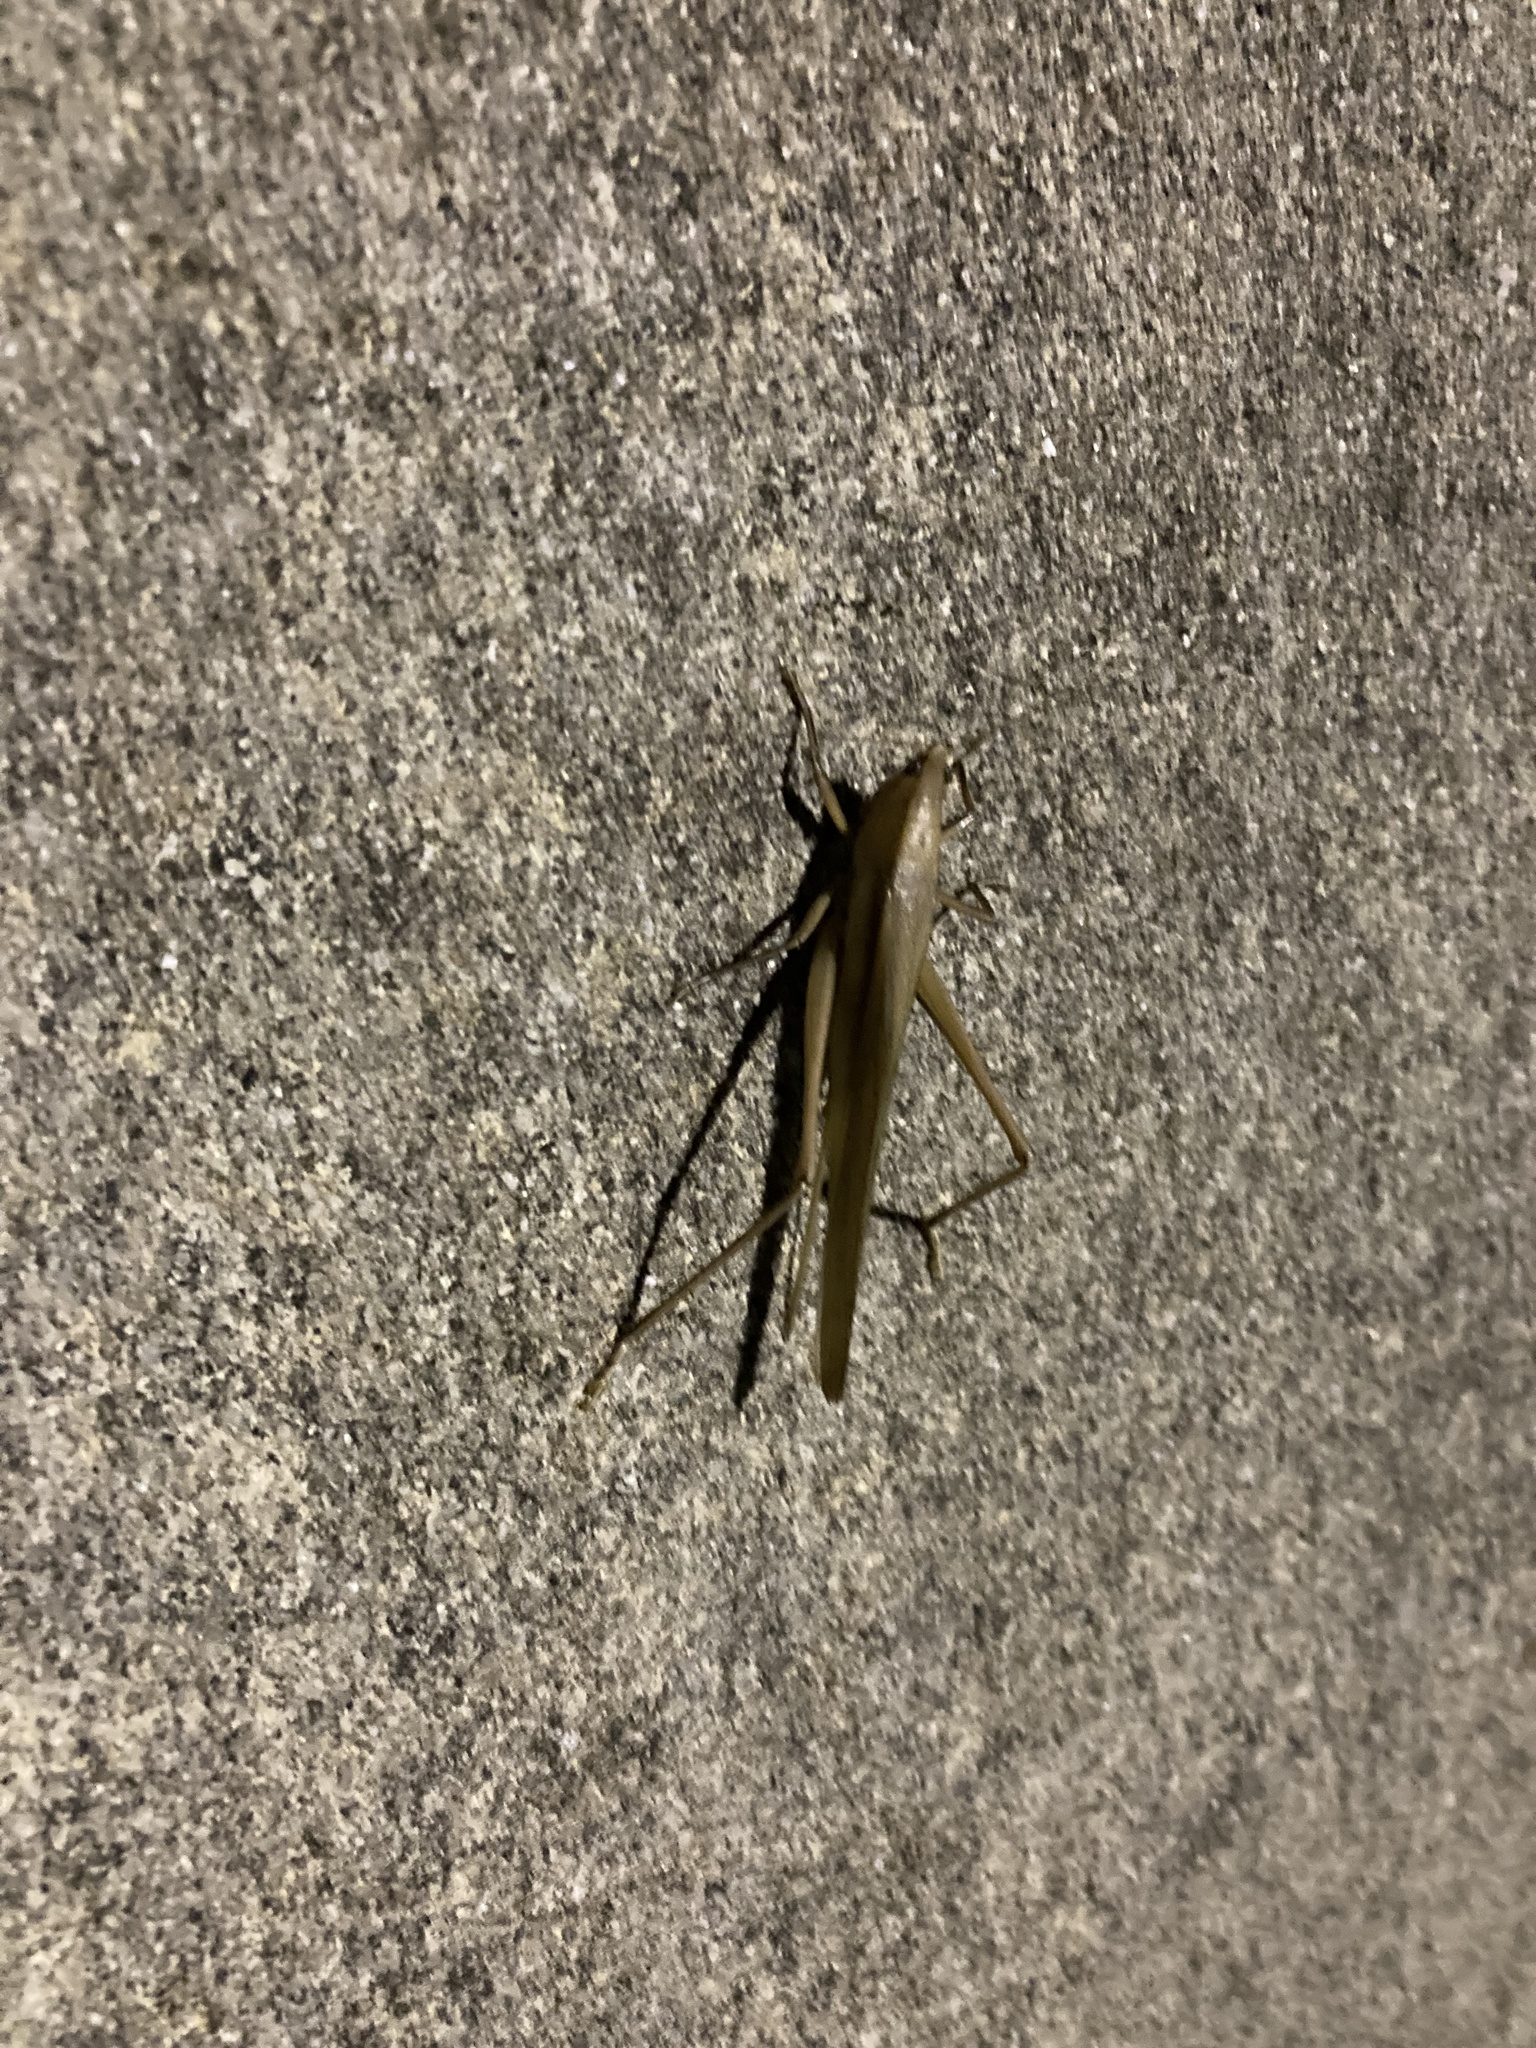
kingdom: Animalia
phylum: Arthropoda
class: Insecta
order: Orthoptera
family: Tettigoniidae
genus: Neoconocephalus
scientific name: Neoconocephalus triops
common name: Broad-tipped conehead
